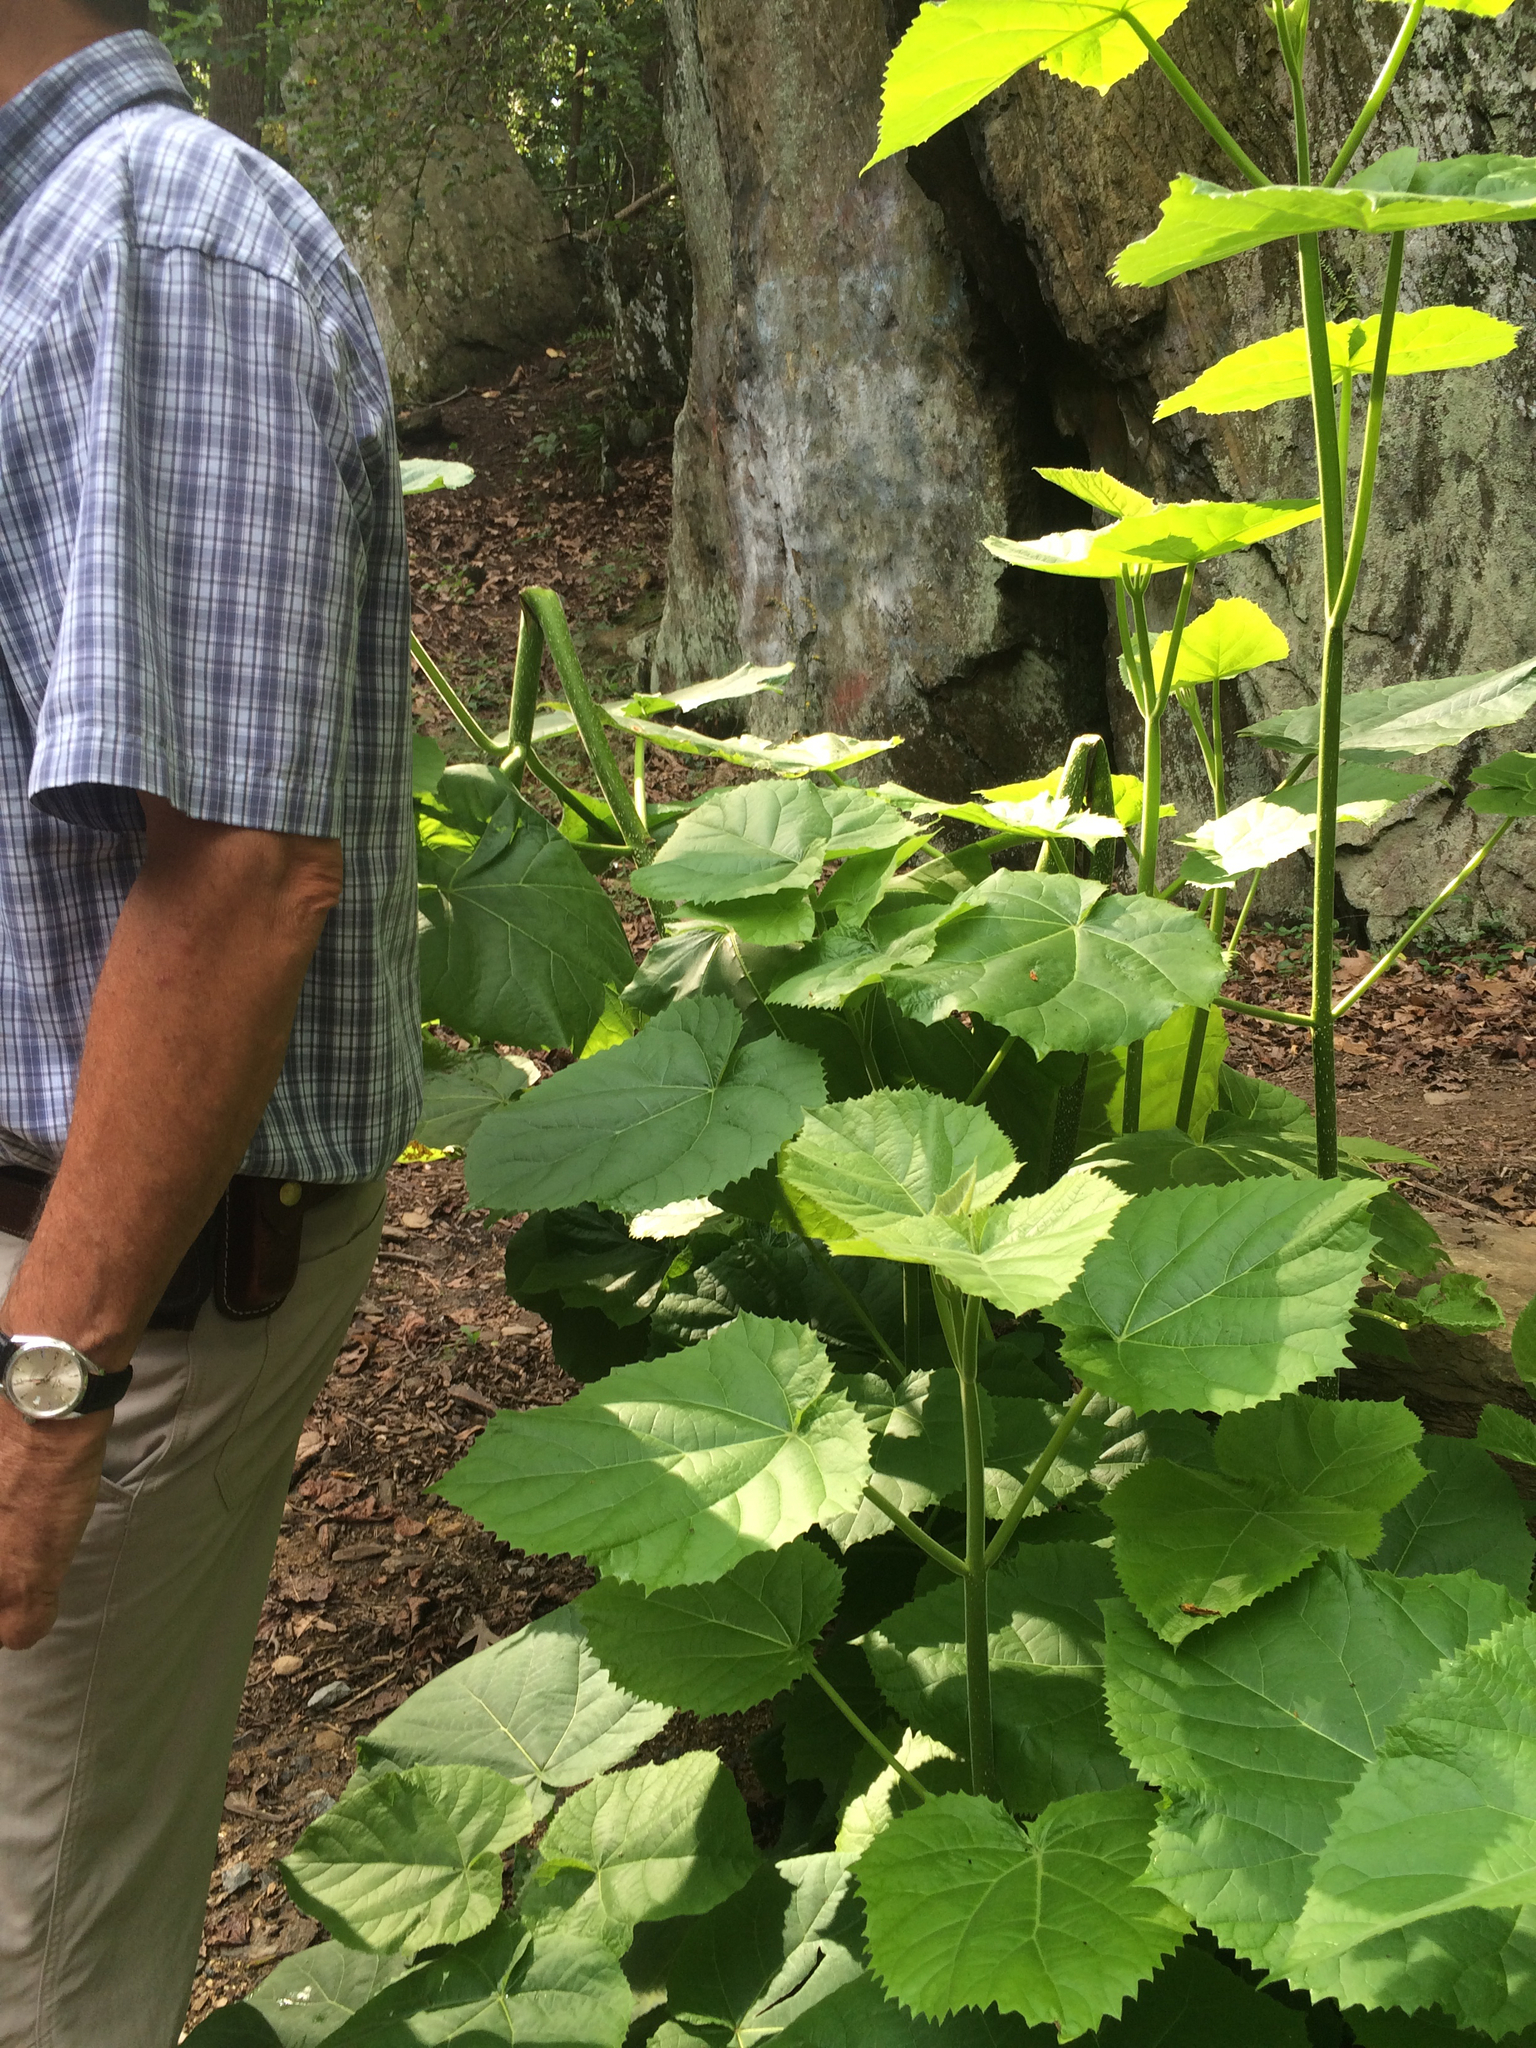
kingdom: Plantae
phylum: Tracheophyta
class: Magnoliopsida
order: Lamiales
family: Paulowniaceae
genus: Paulownia
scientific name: Paulownia tomentosa
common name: Foxglove-tree
